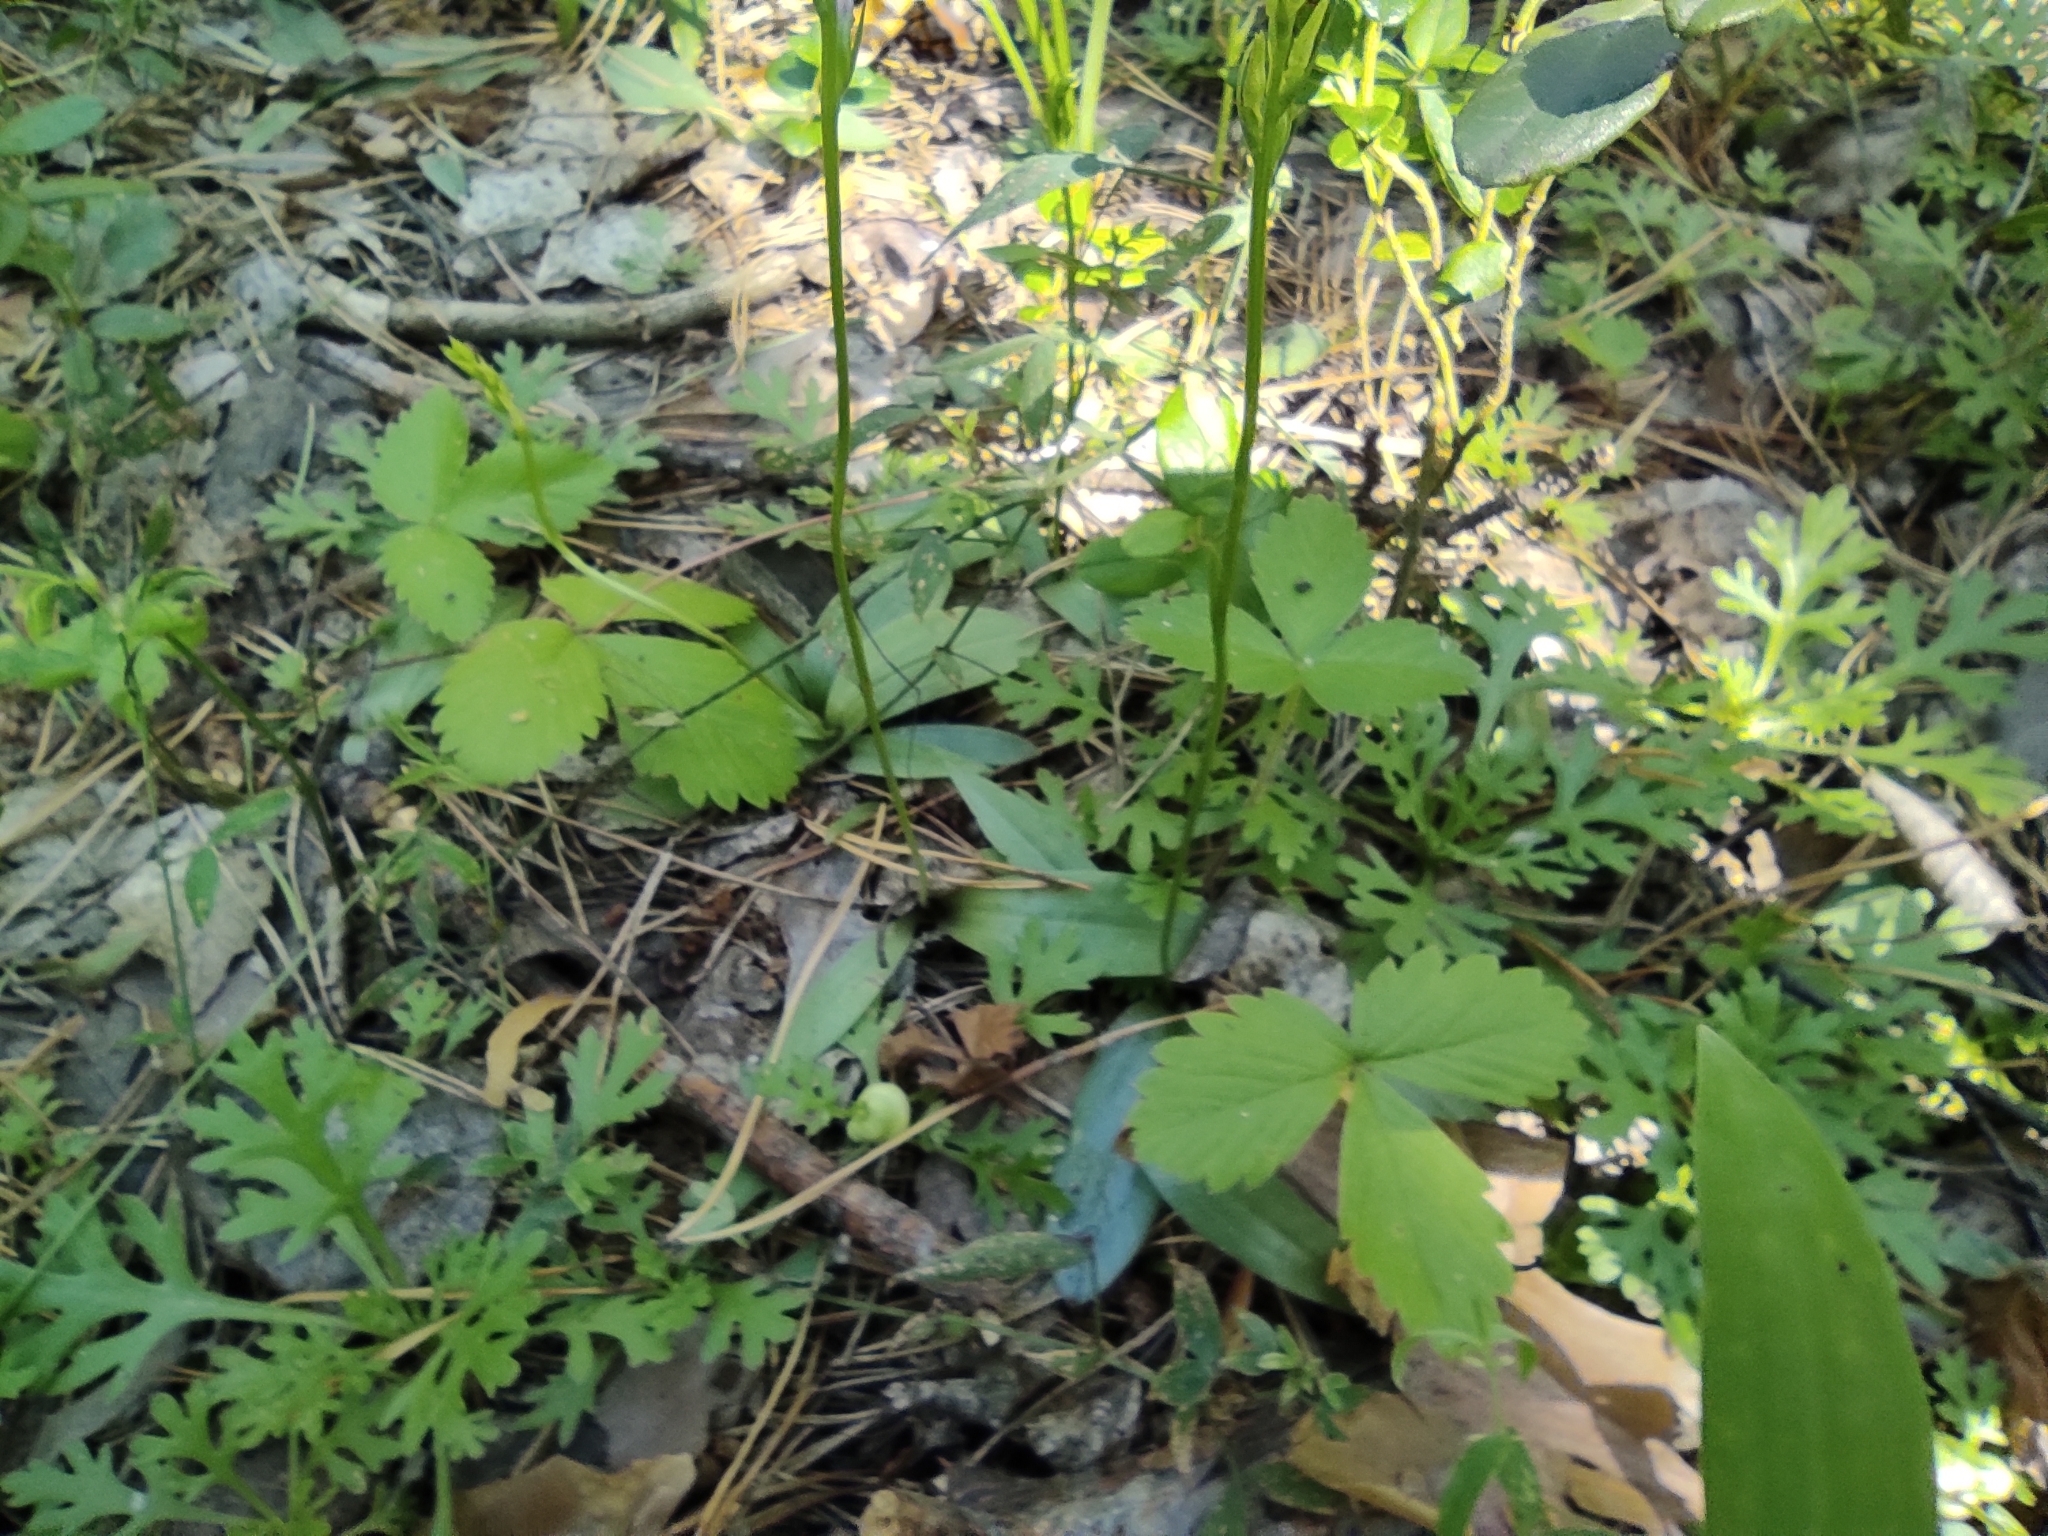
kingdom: Plantae
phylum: Tracheophyta
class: Liliopsida
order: Asparagales
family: Orchidaceae
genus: Hemipilia
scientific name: Hemipilia cucullata
